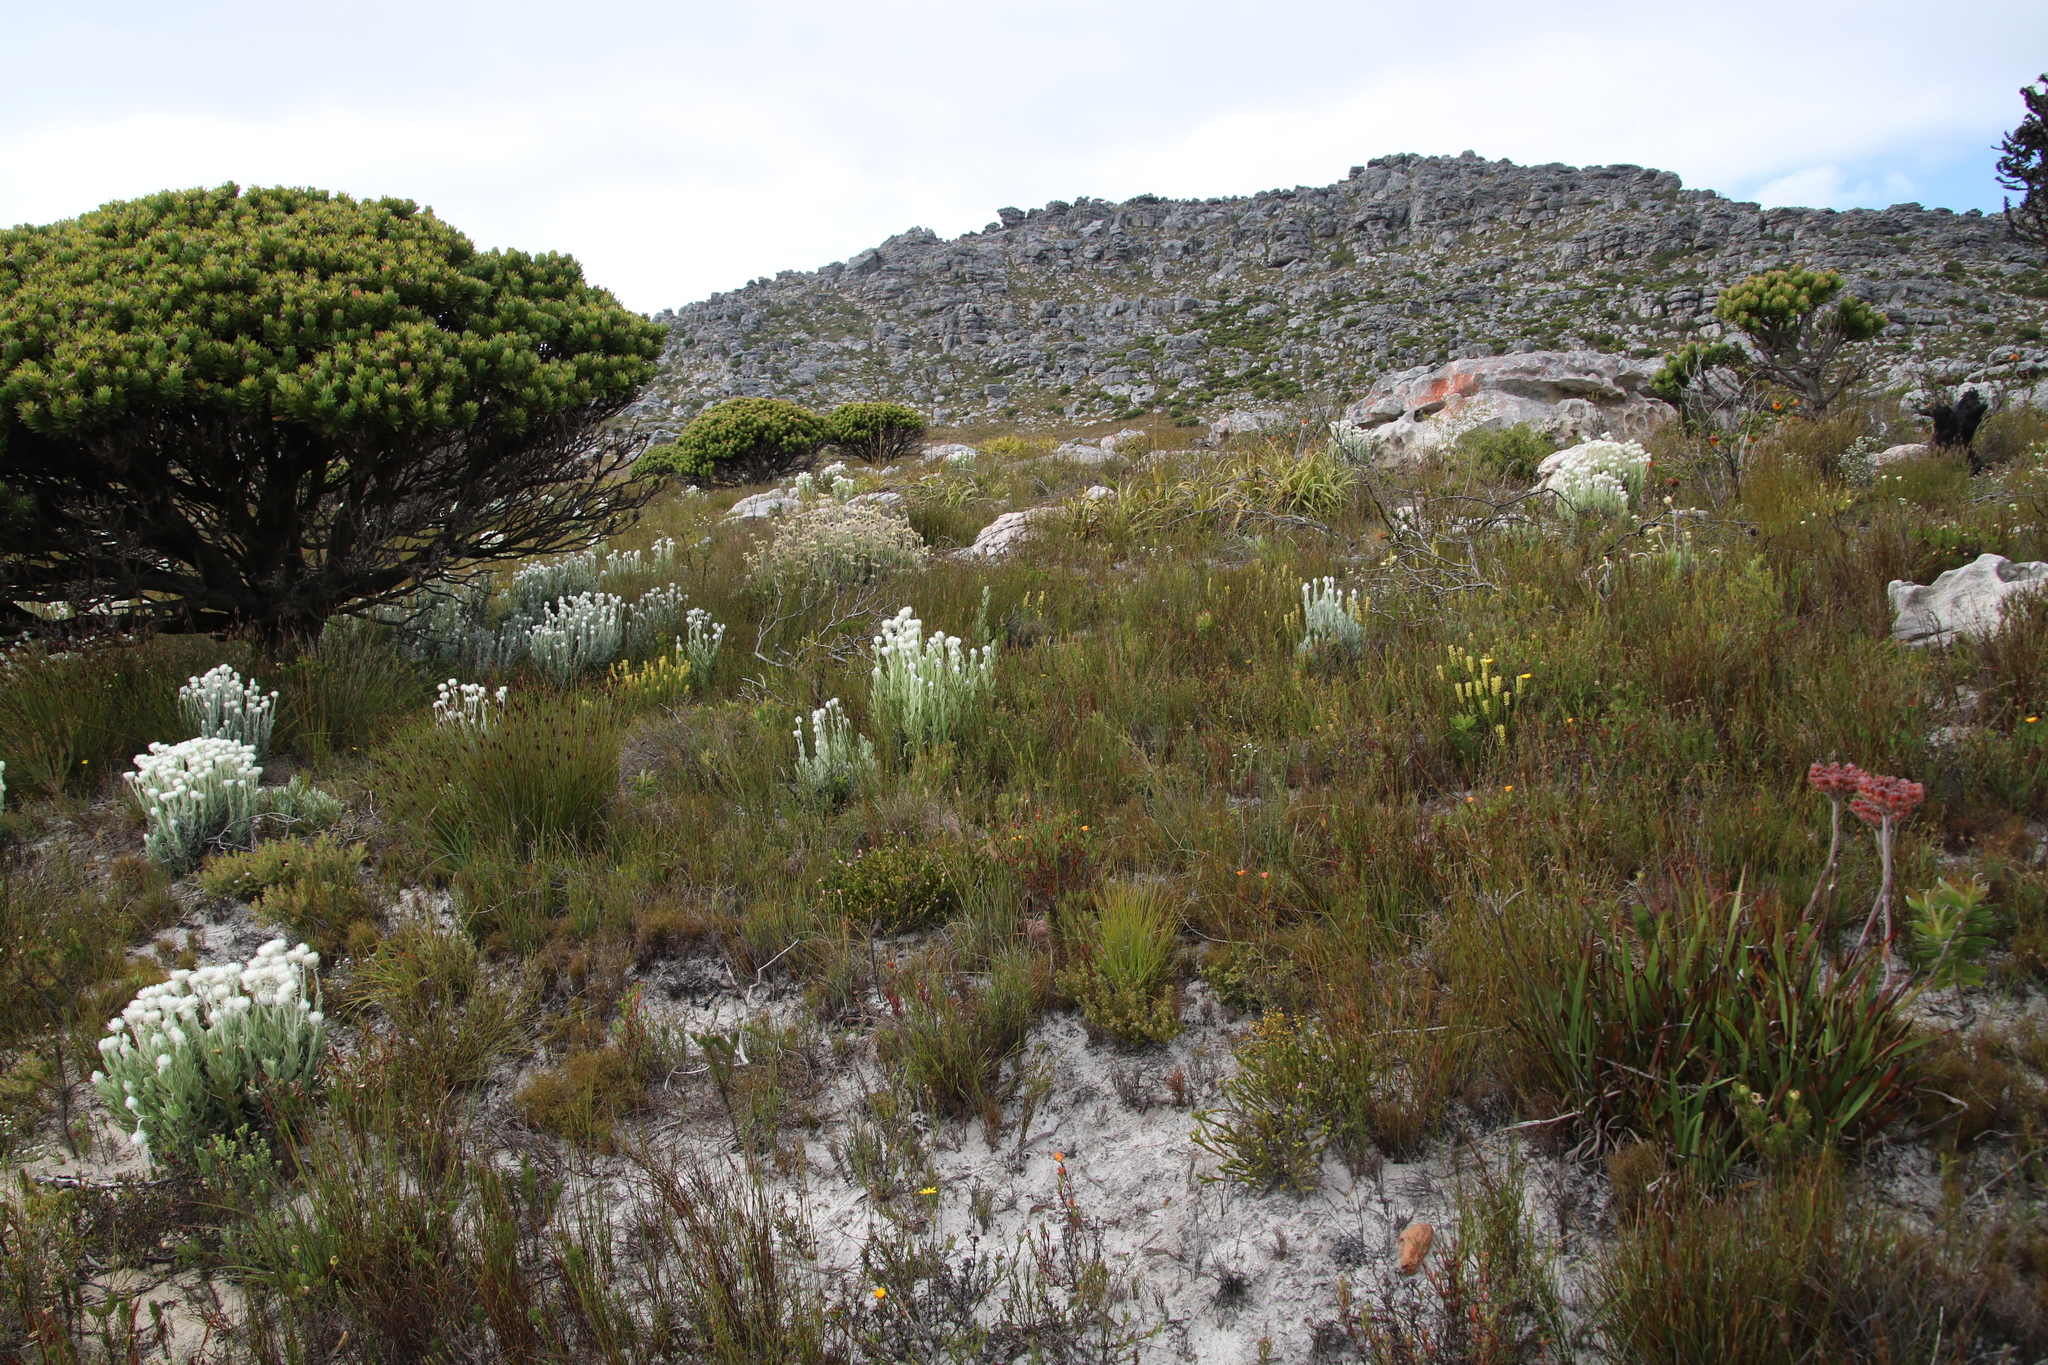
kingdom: Plantae
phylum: Tracheophyta
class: Magnoliopsida
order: Lamiales
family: Scrophulariaceae
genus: Microdon
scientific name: Microdon dubius
